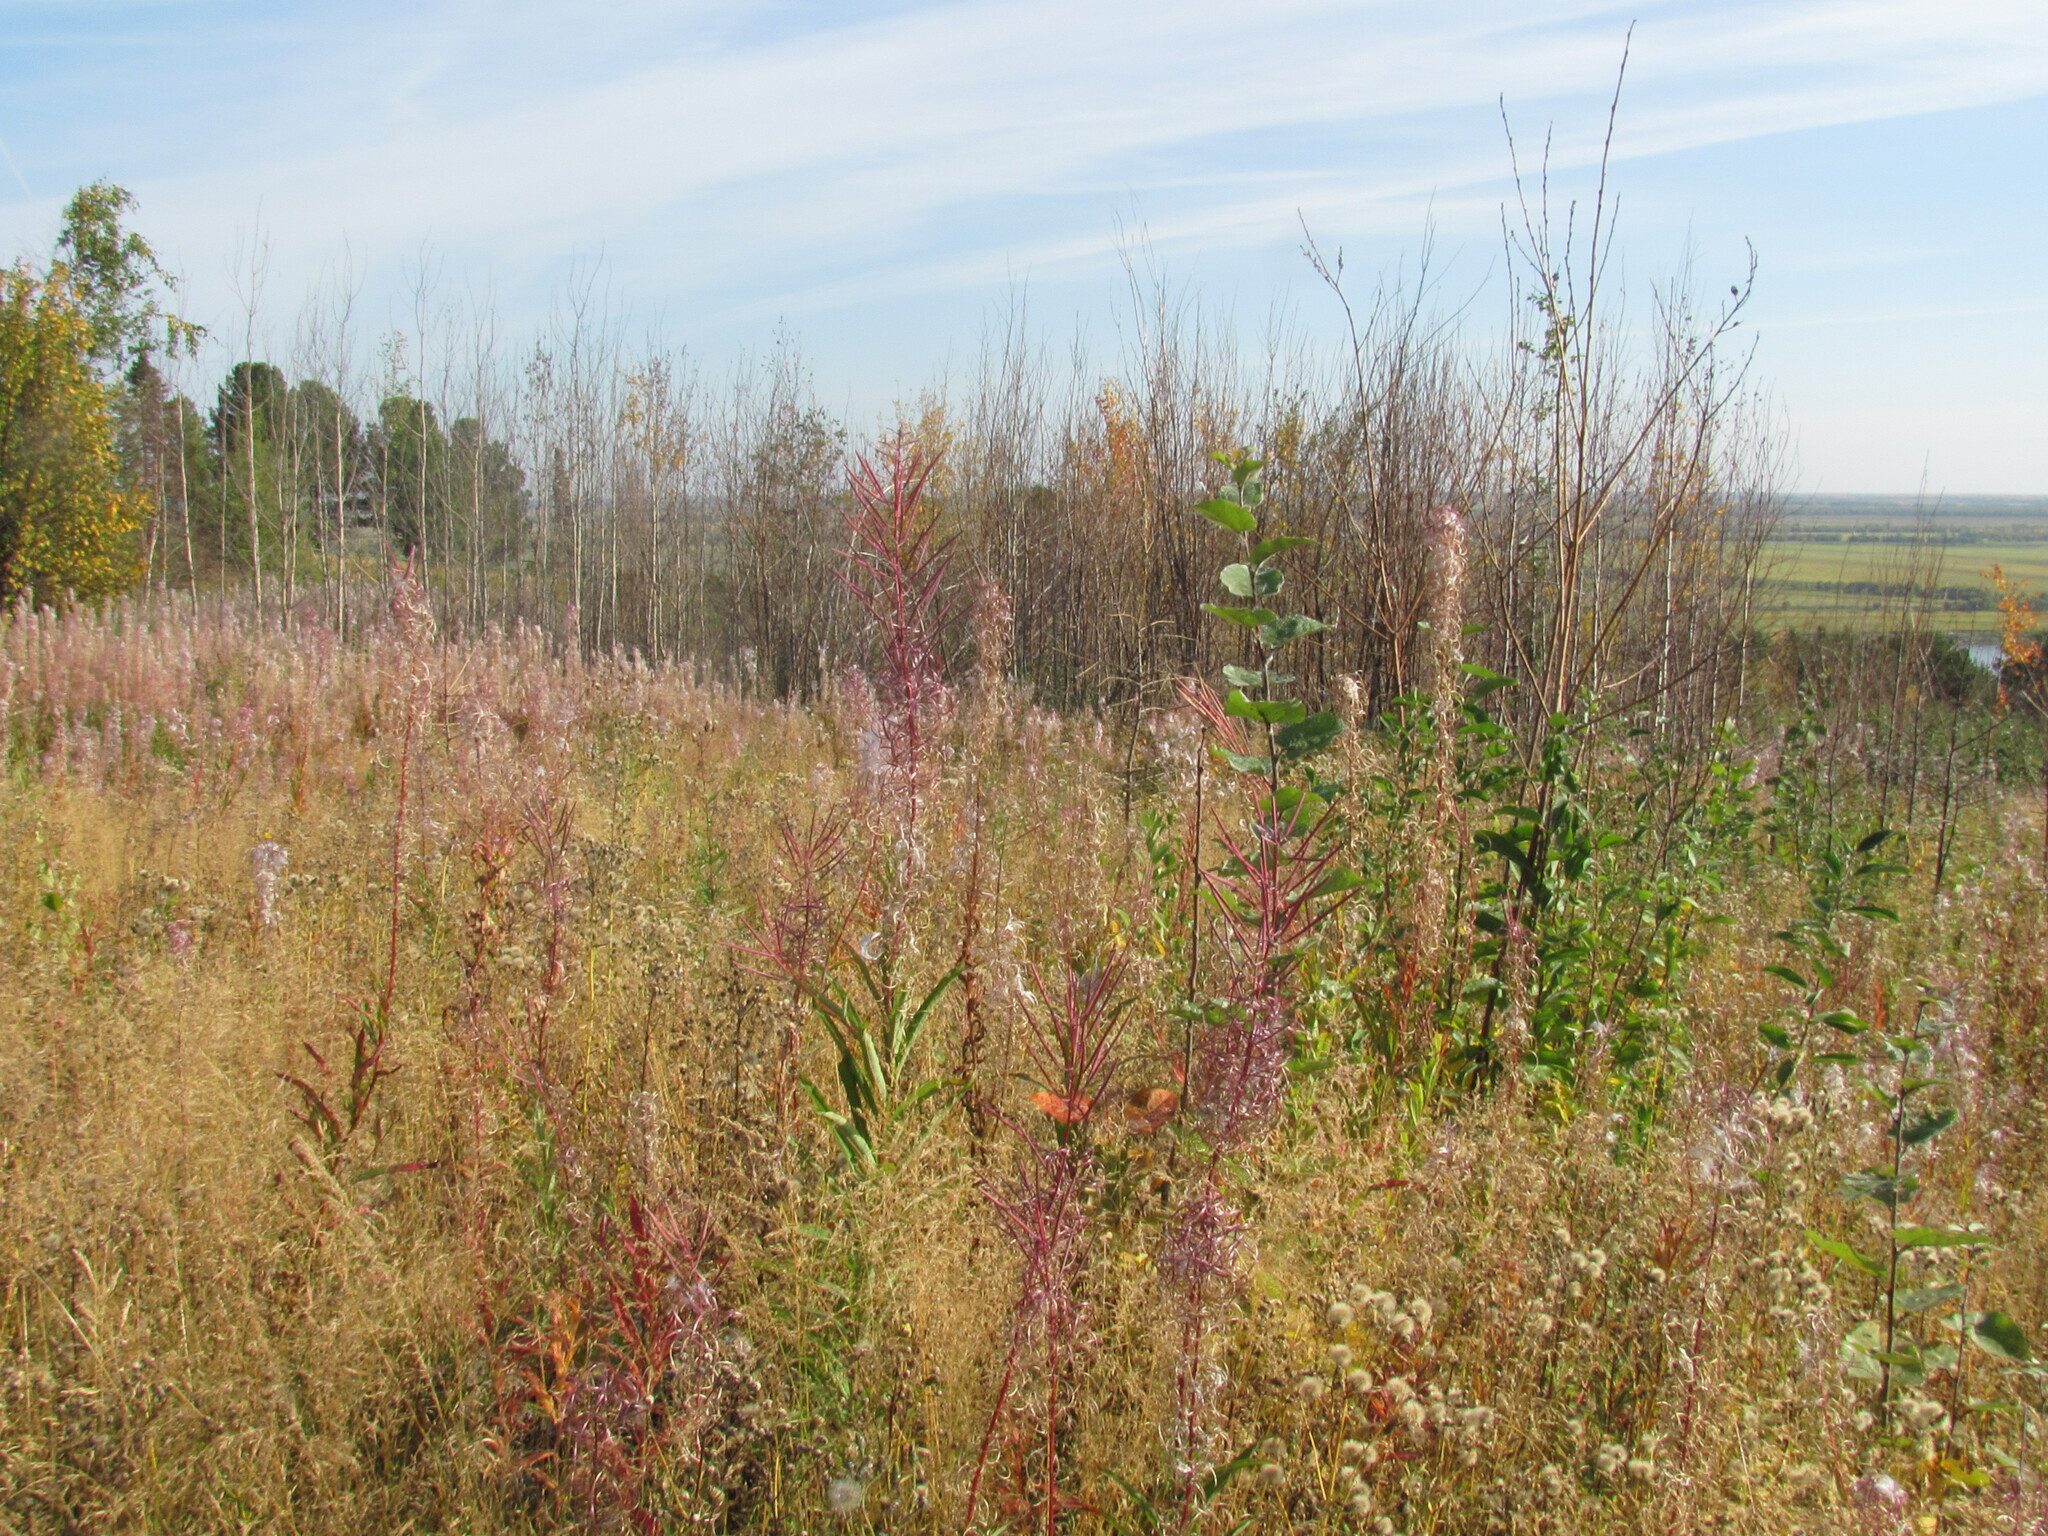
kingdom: Plantae
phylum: Tracheophyta
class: Magnoliopsida
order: Myrtales
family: Onagraceae
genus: Chamaenerion
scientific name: Chamaenerion angustifolium
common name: Fireweed
